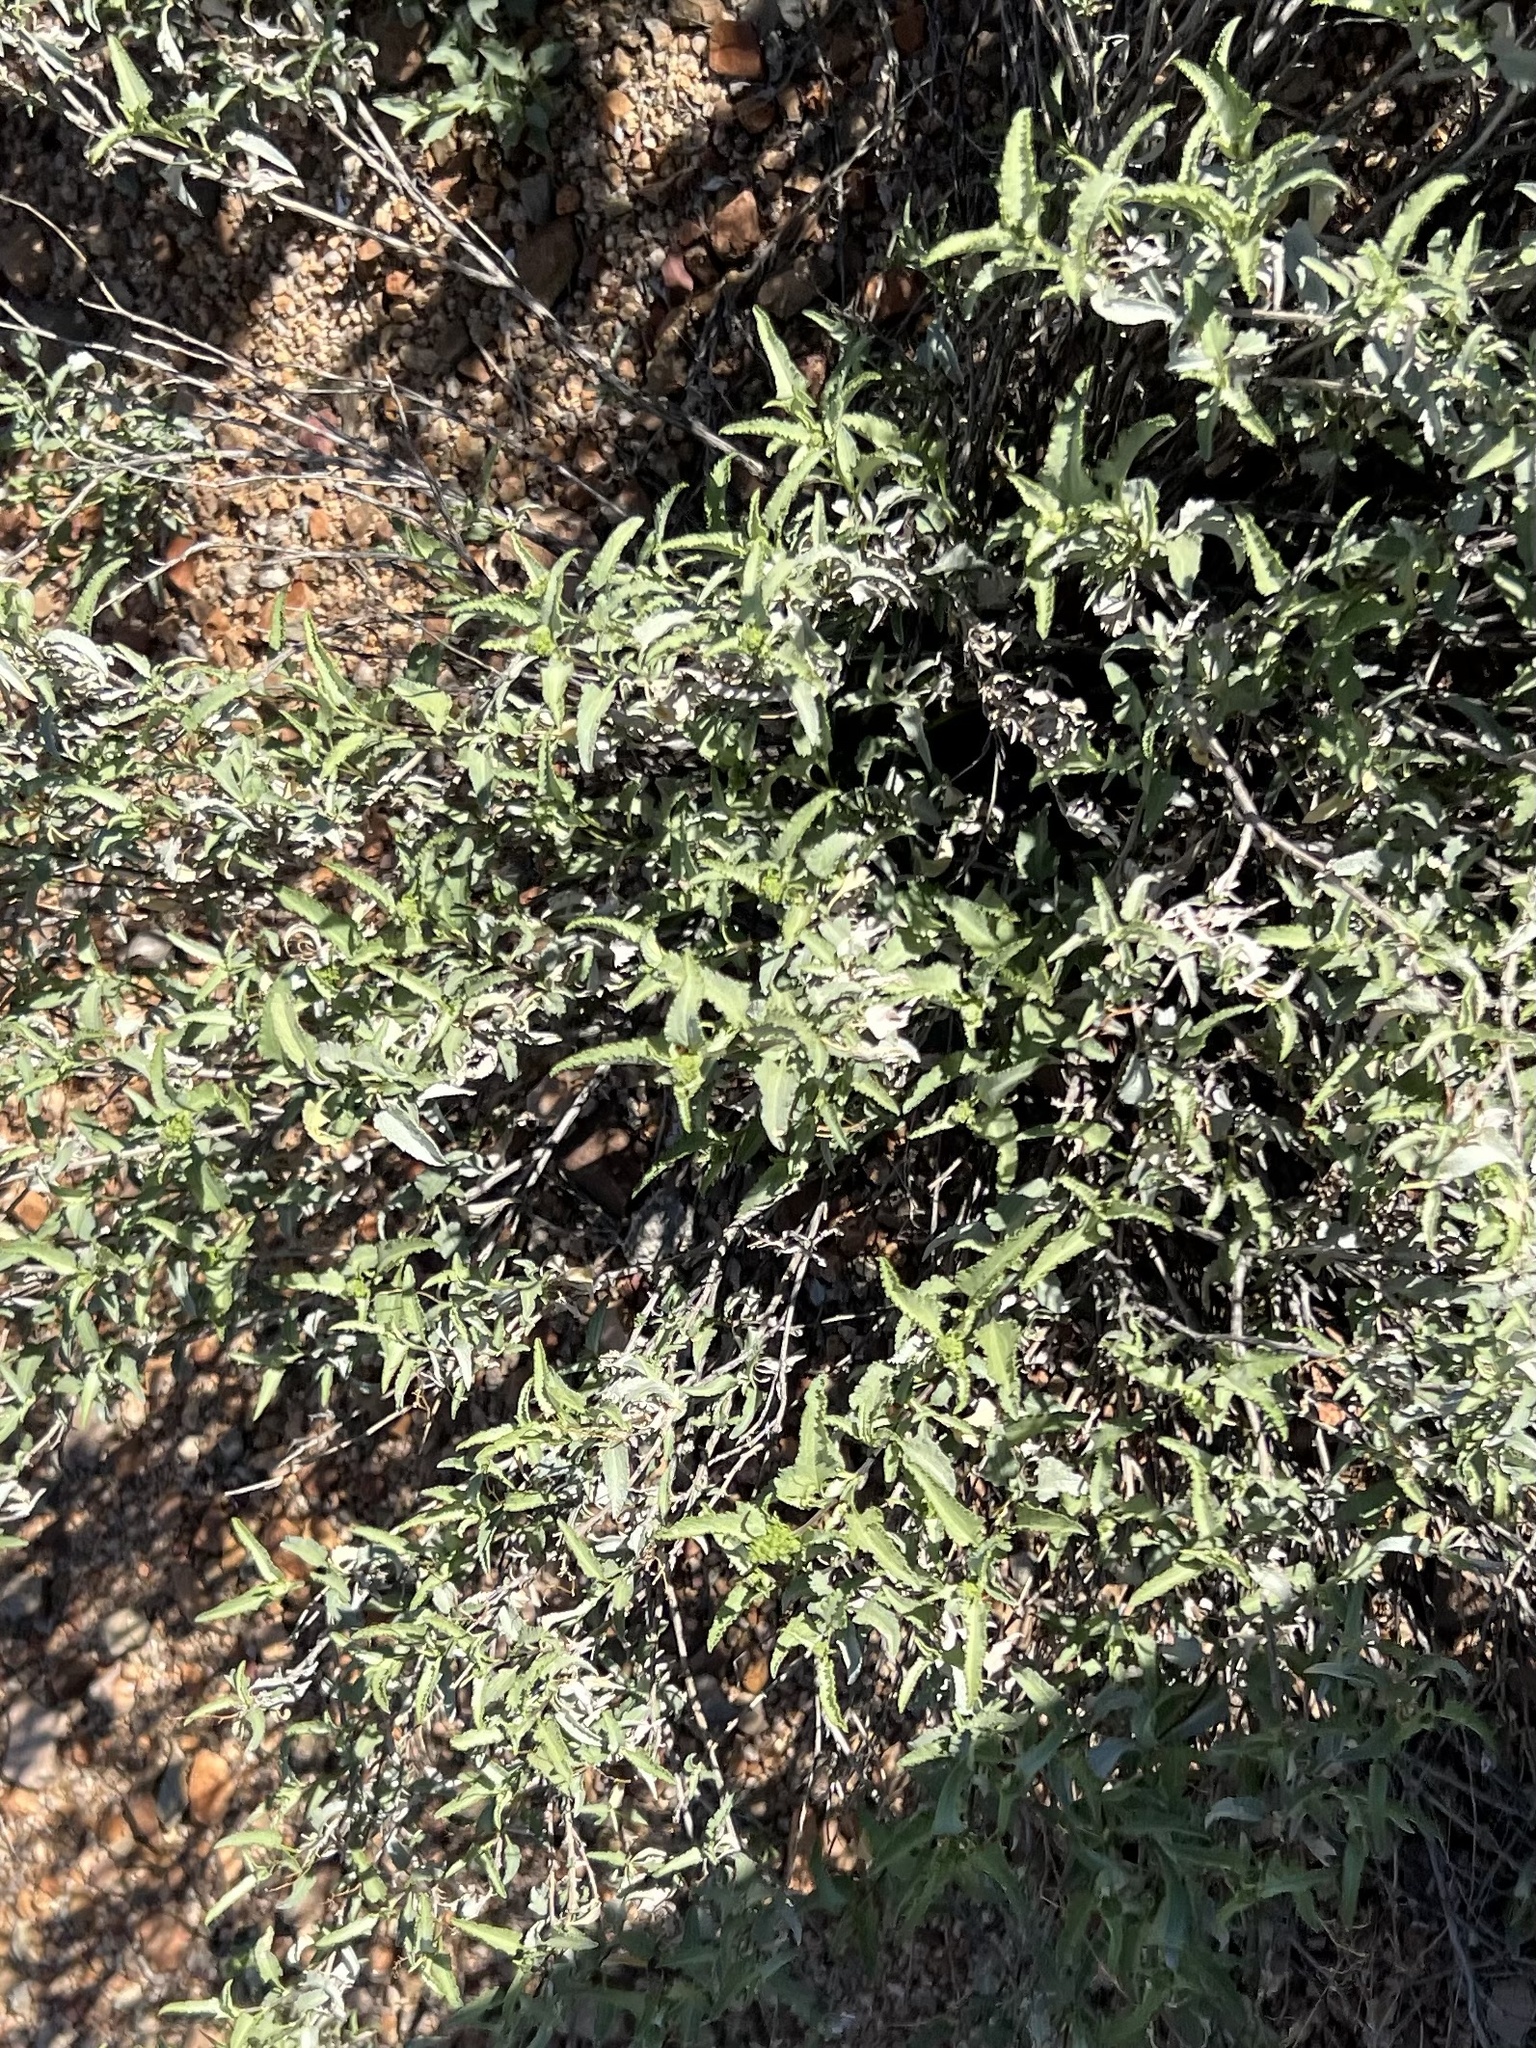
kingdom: Plantae
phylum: Tracheophyta
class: Magnoliopsida
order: Asterales
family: Asteraceae
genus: Ambrosia
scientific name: Ambrosia deltoidea
